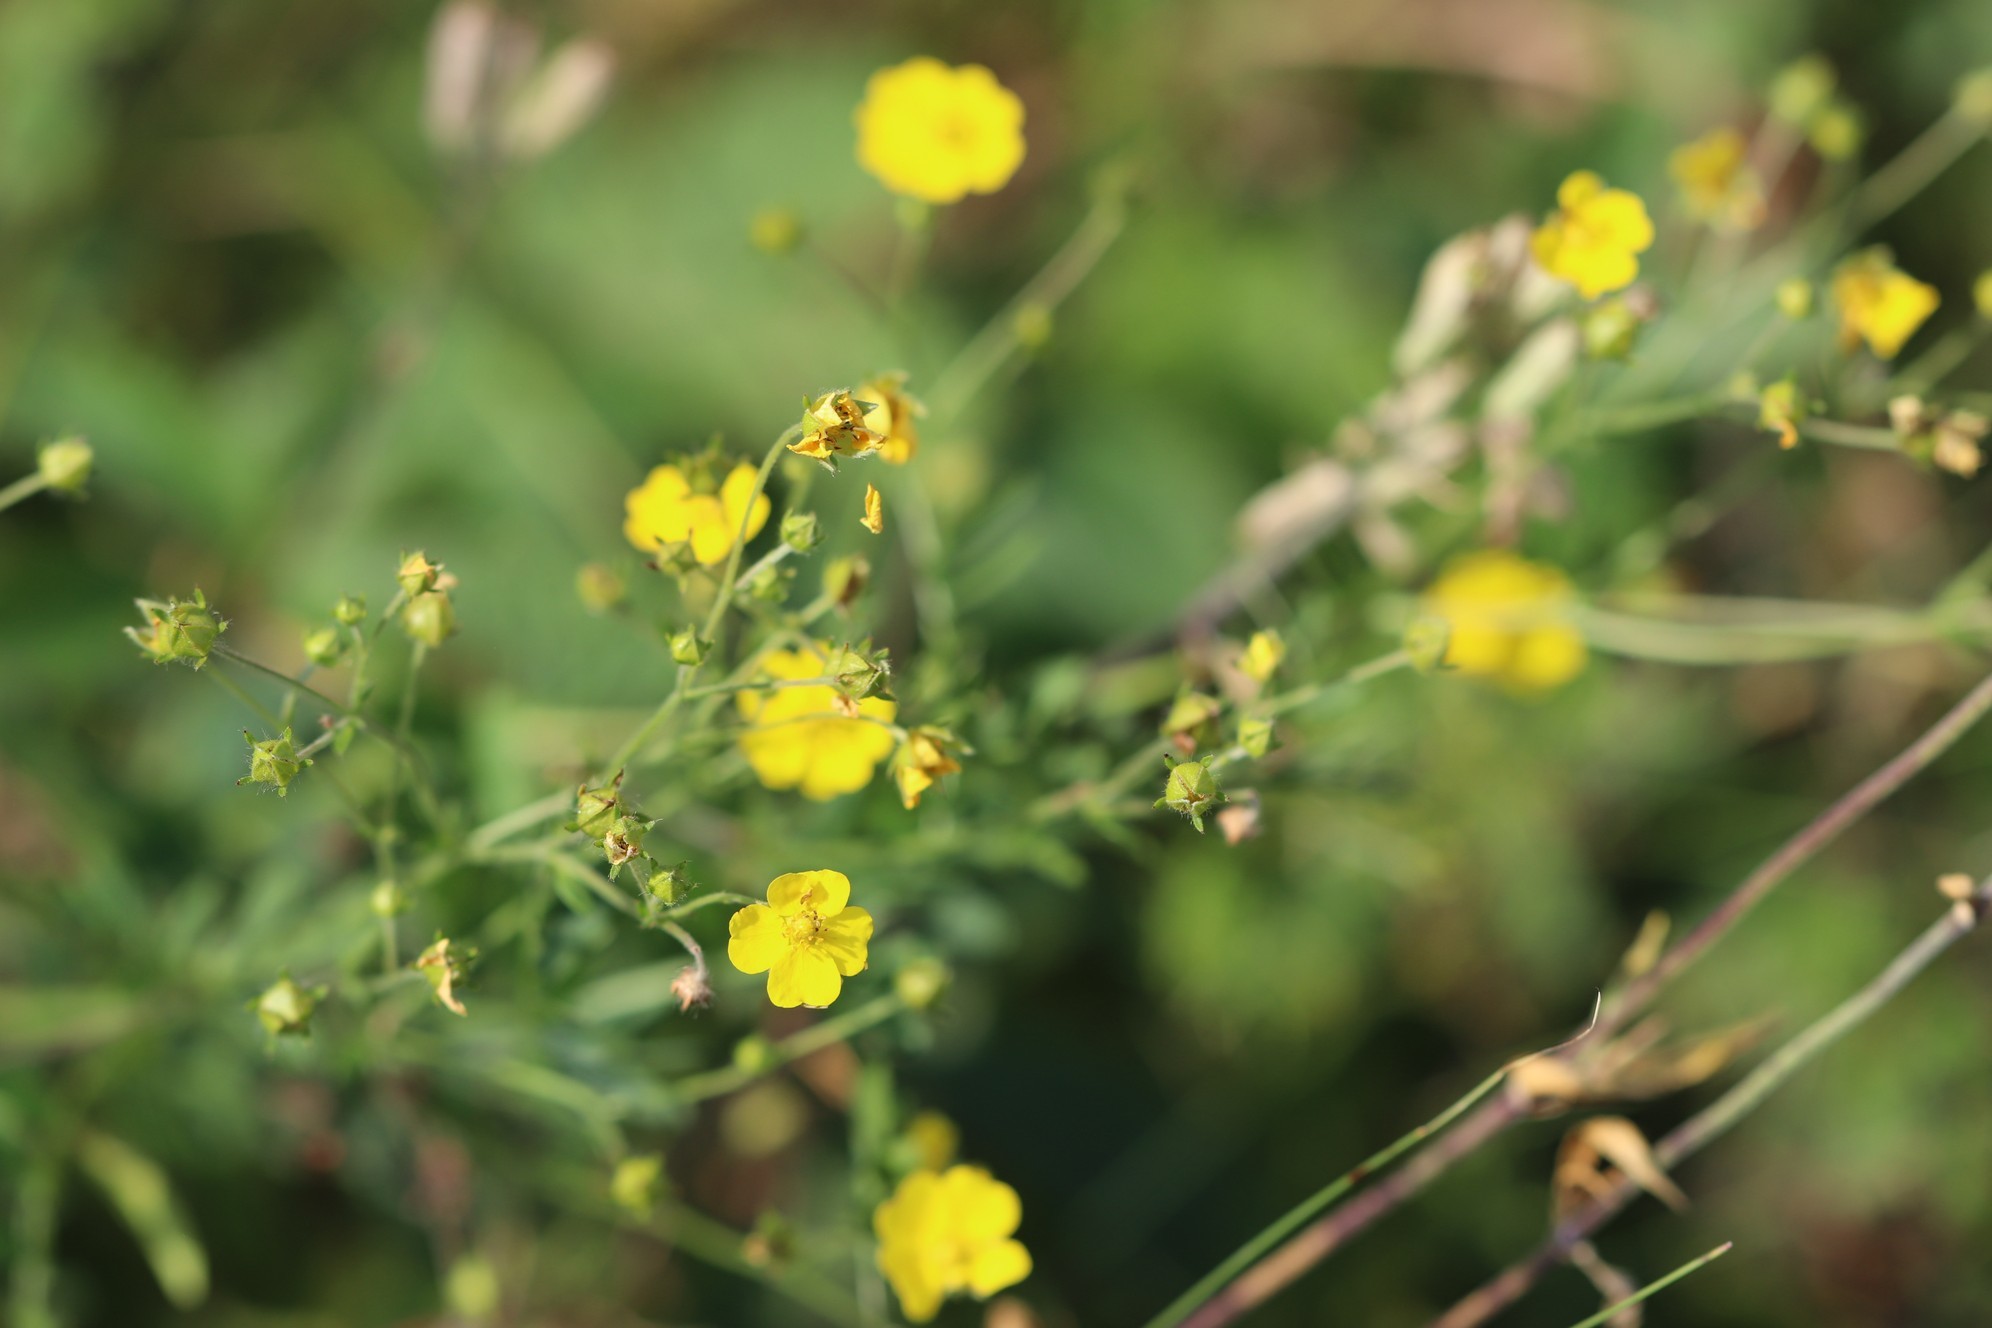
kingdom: Plantae
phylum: Tracheophyta
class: Magnoliopsida
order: Rosales
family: Rosaceae
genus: Potentilla
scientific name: Potentilla chrysantha
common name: Thuringian cinquefoil
